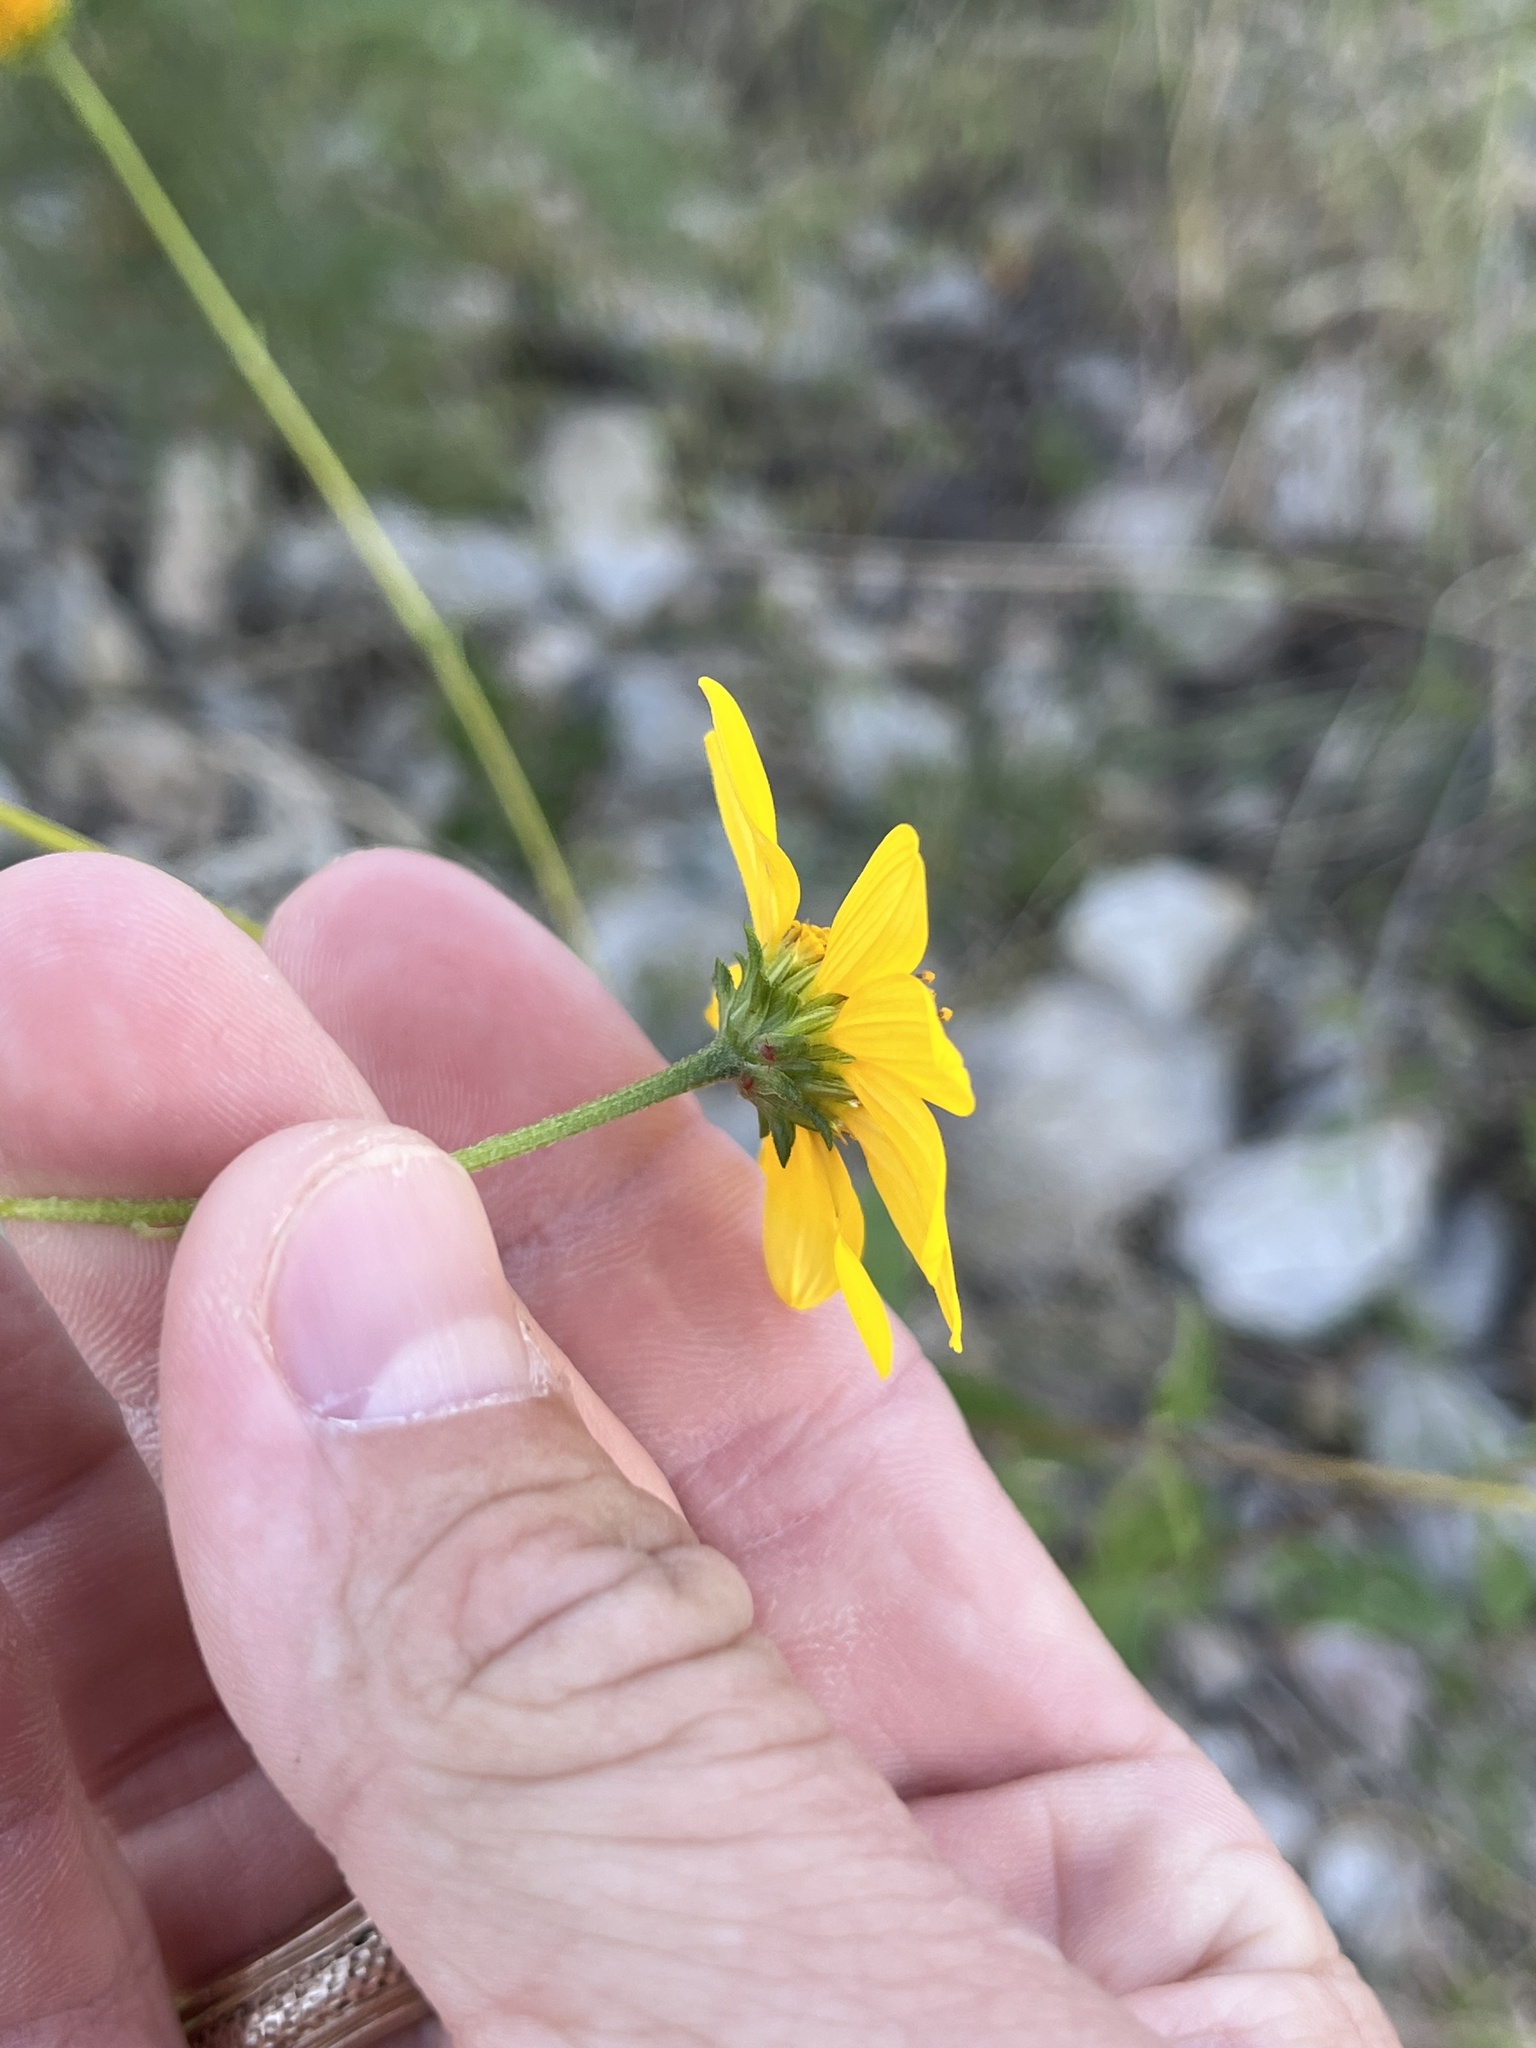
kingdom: Plantae
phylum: Tracheophyta
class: Magnoliopsida
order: Asterales
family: Asteraceae
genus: Viguiera
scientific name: Viguiera dentata
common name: Toothleaf
